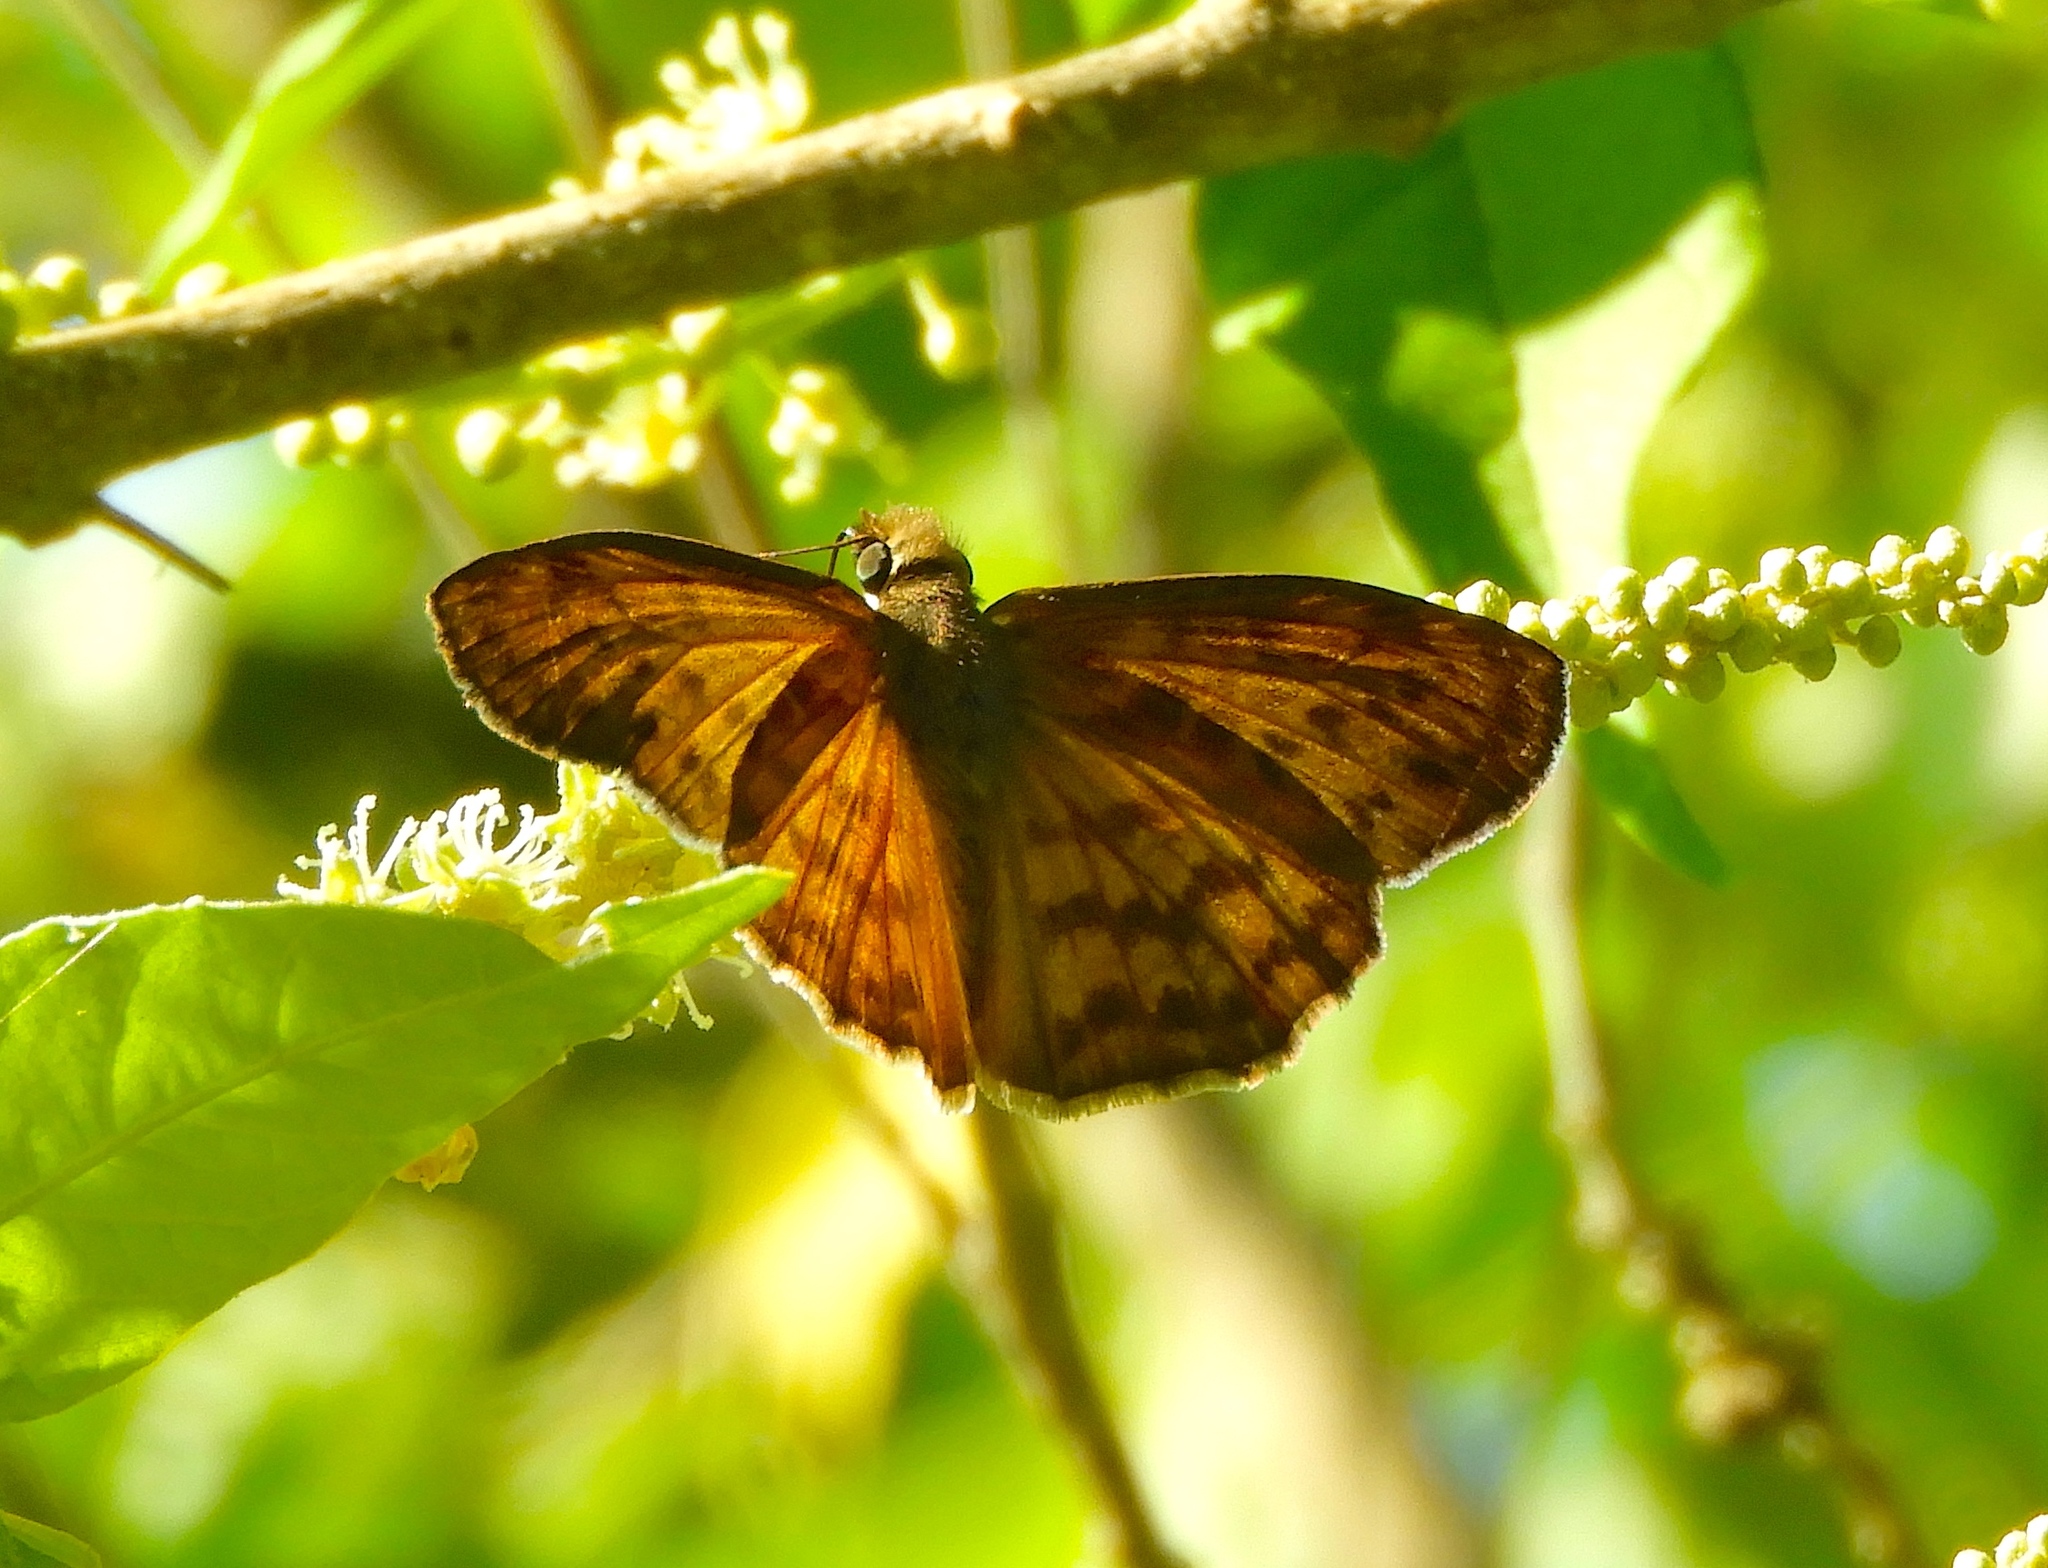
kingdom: Animalia
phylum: Arthropoda
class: Insecta
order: Lepidoptera
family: Hesperiidae
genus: Timochares
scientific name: Timochares ruptifasciata
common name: Brown-banded skipper
